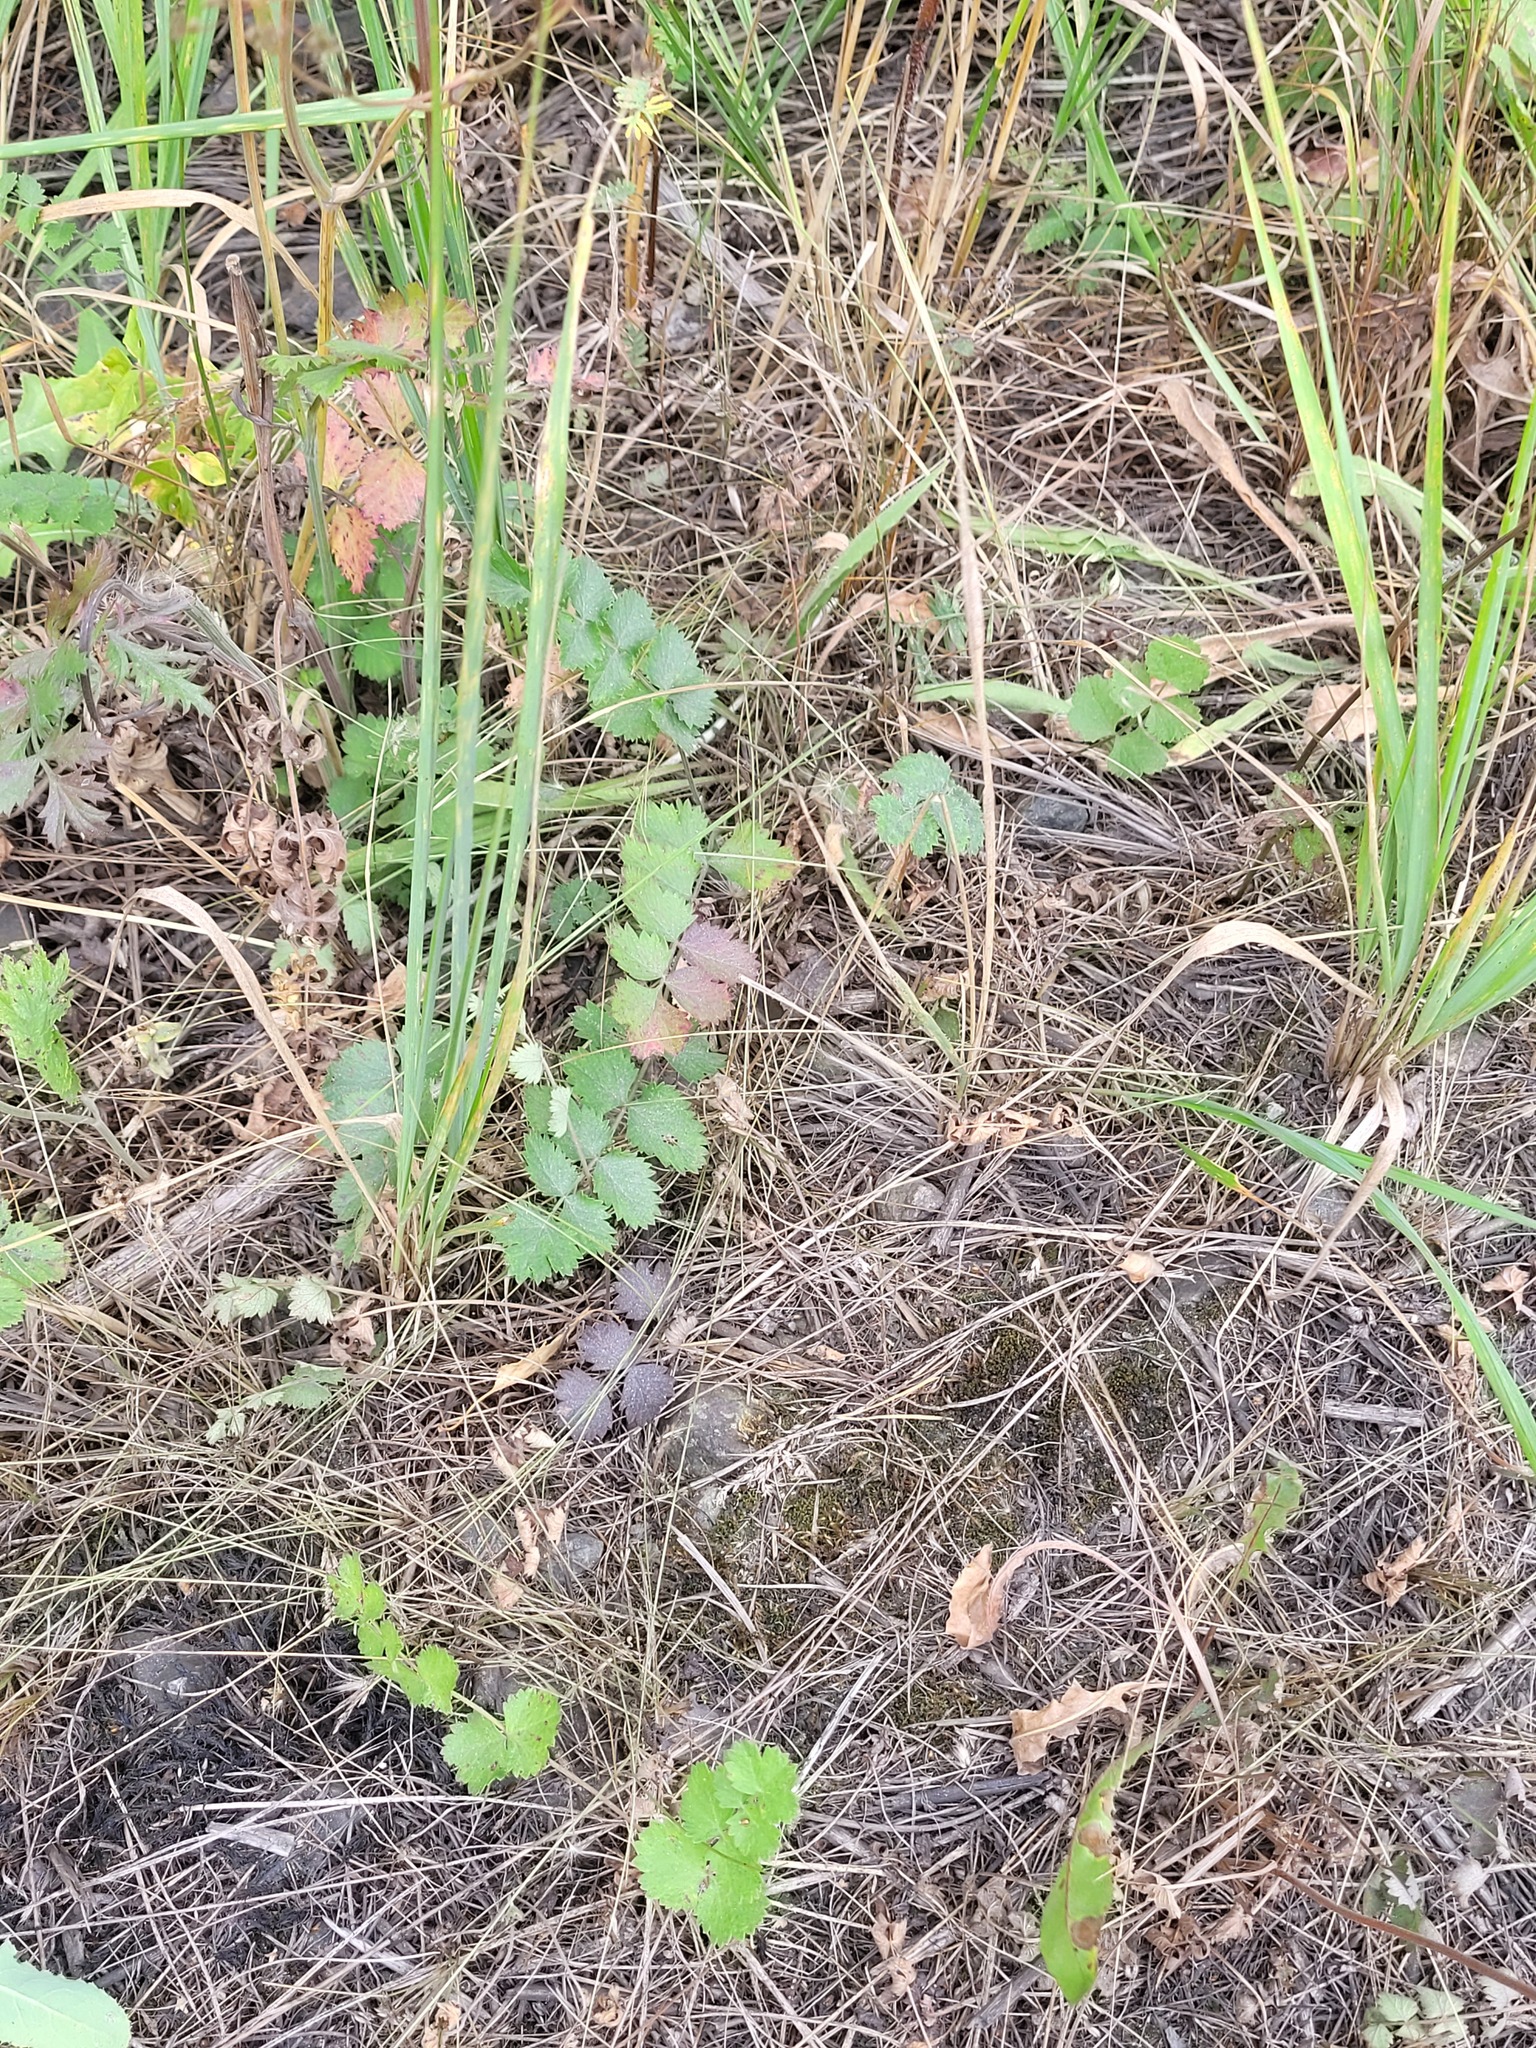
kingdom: Plantae
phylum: Tracheophyta
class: Magnoliopsida
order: Apiales
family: Apiaceae
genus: Pimpinella
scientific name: Pimpinella saxifraga
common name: Burnet-saxifrage
